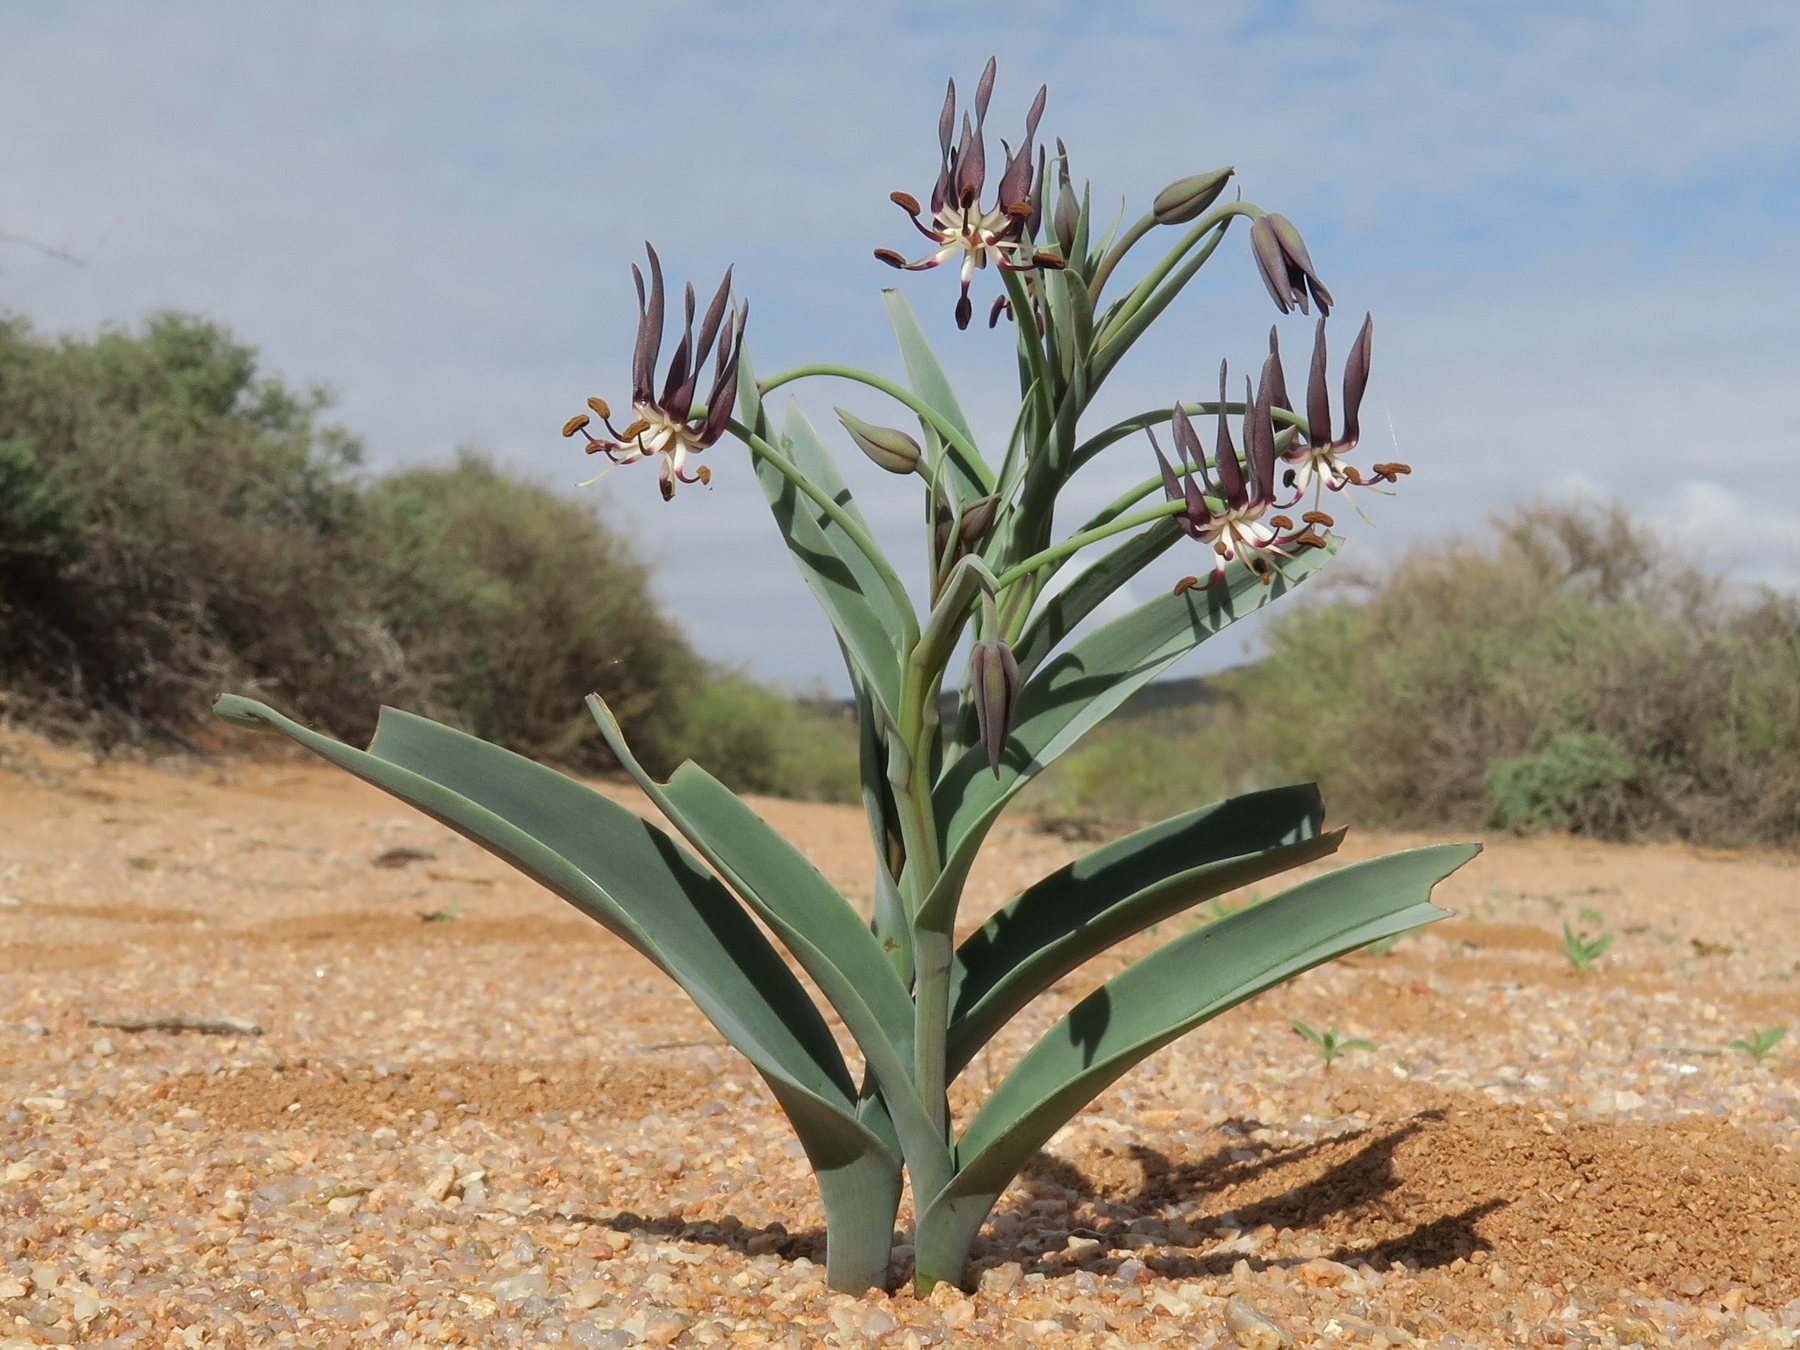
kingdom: Plantae
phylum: Tracheophyta
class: Liliopsida
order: Liliales
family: Colchicaceae
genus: Ornithoglossum
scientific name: Ornithoglossum vulgare
